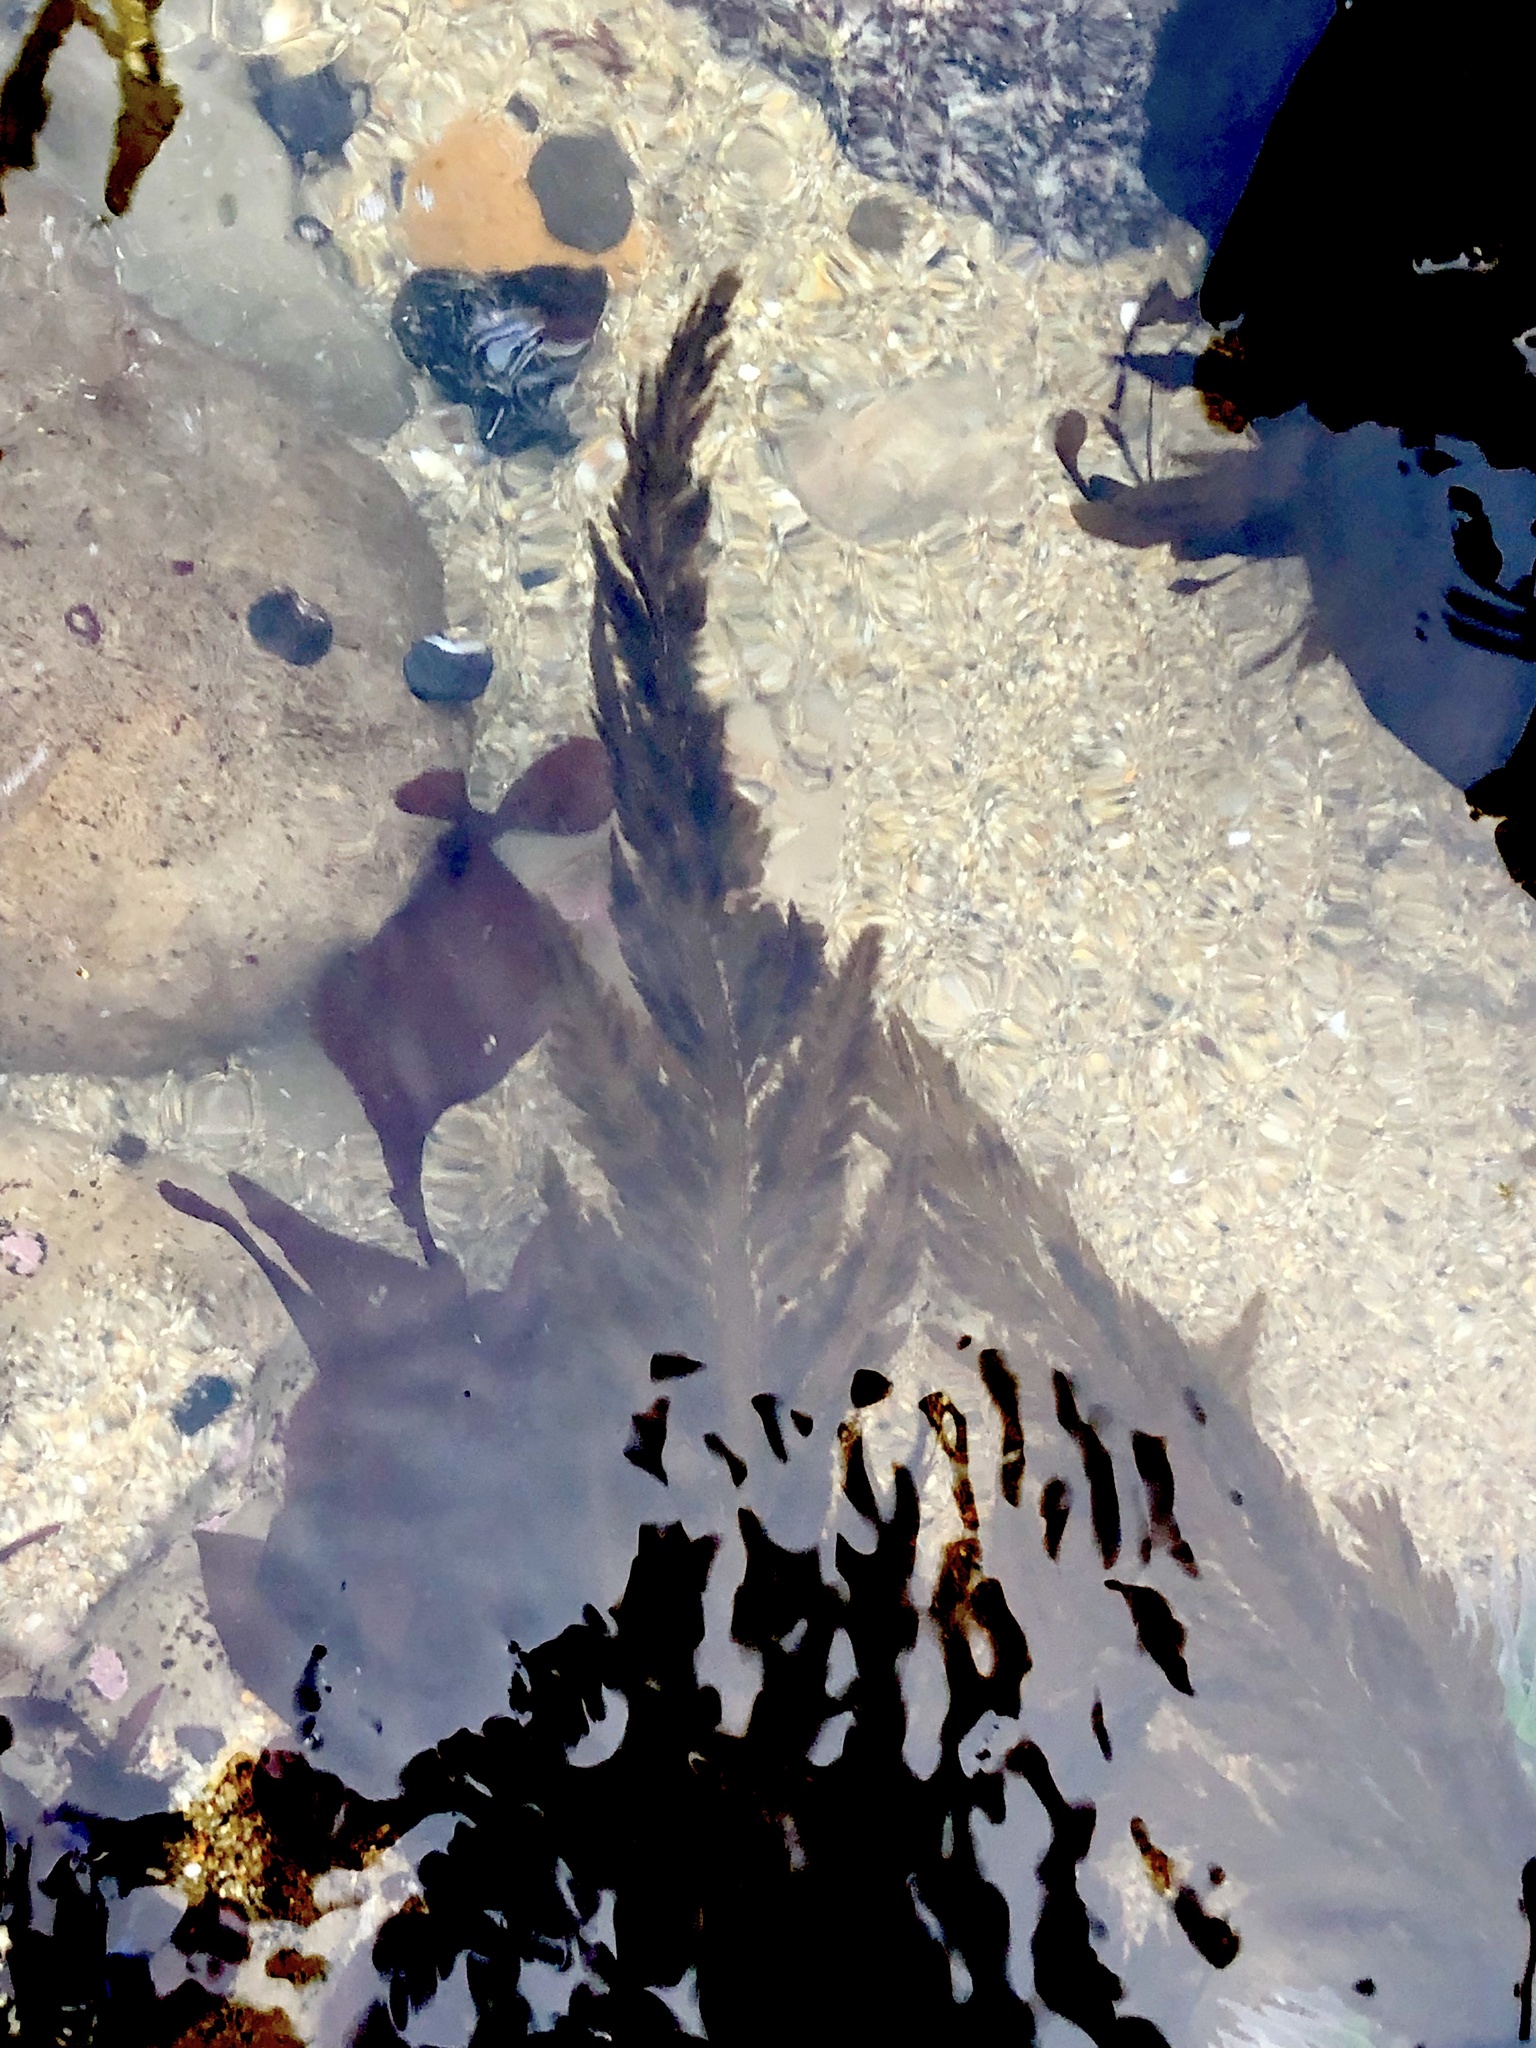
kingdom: Chromista
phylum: Ochrophyta
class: Phaeophyceae
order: Desmarestiales
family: Desmarestiaceae
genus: Desmarestia
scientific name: Desmarestia ligulata
